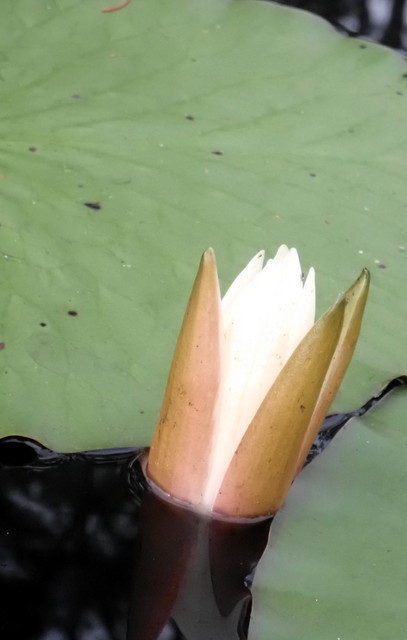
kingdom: Plantae
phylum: Tracheophyta
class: Magnoliopsida
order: Nymphaeales
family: Nymphaeaceae
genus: Nymphaea
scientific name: Nymphaea odorata
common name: Fragrant water-lily
